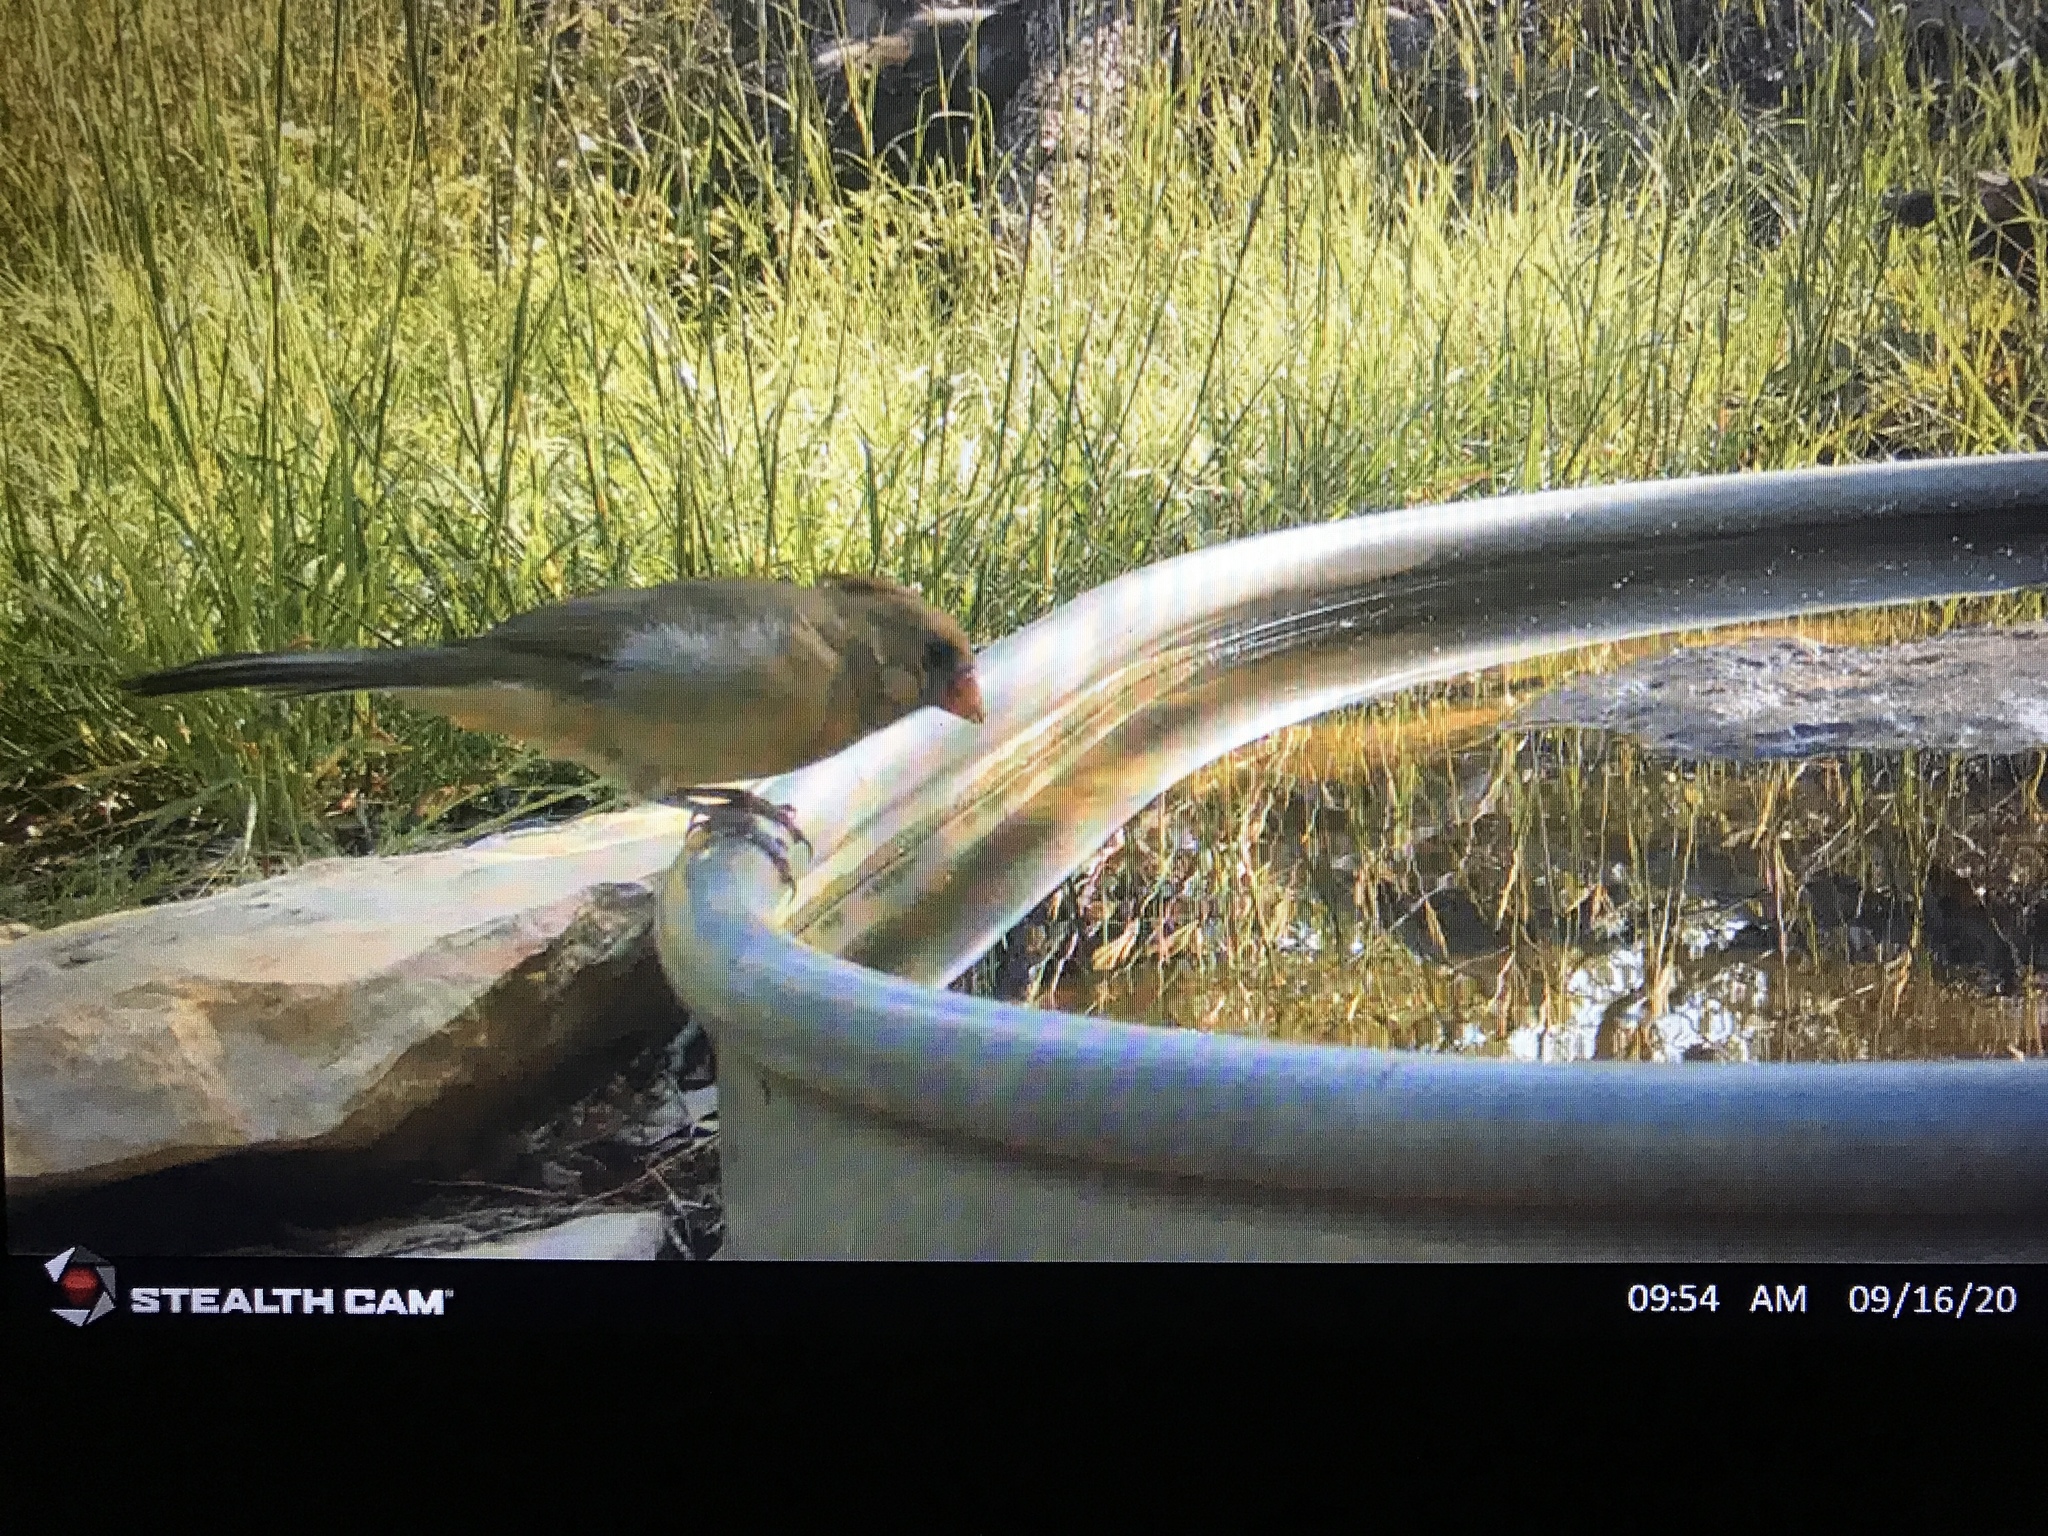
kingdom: Animalia
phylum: Chordata
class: Aves
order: Passeriformes
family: Cardinalidae
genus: Cardinalis
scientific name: Cardinalis cardinalis
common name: Northern cardinal
